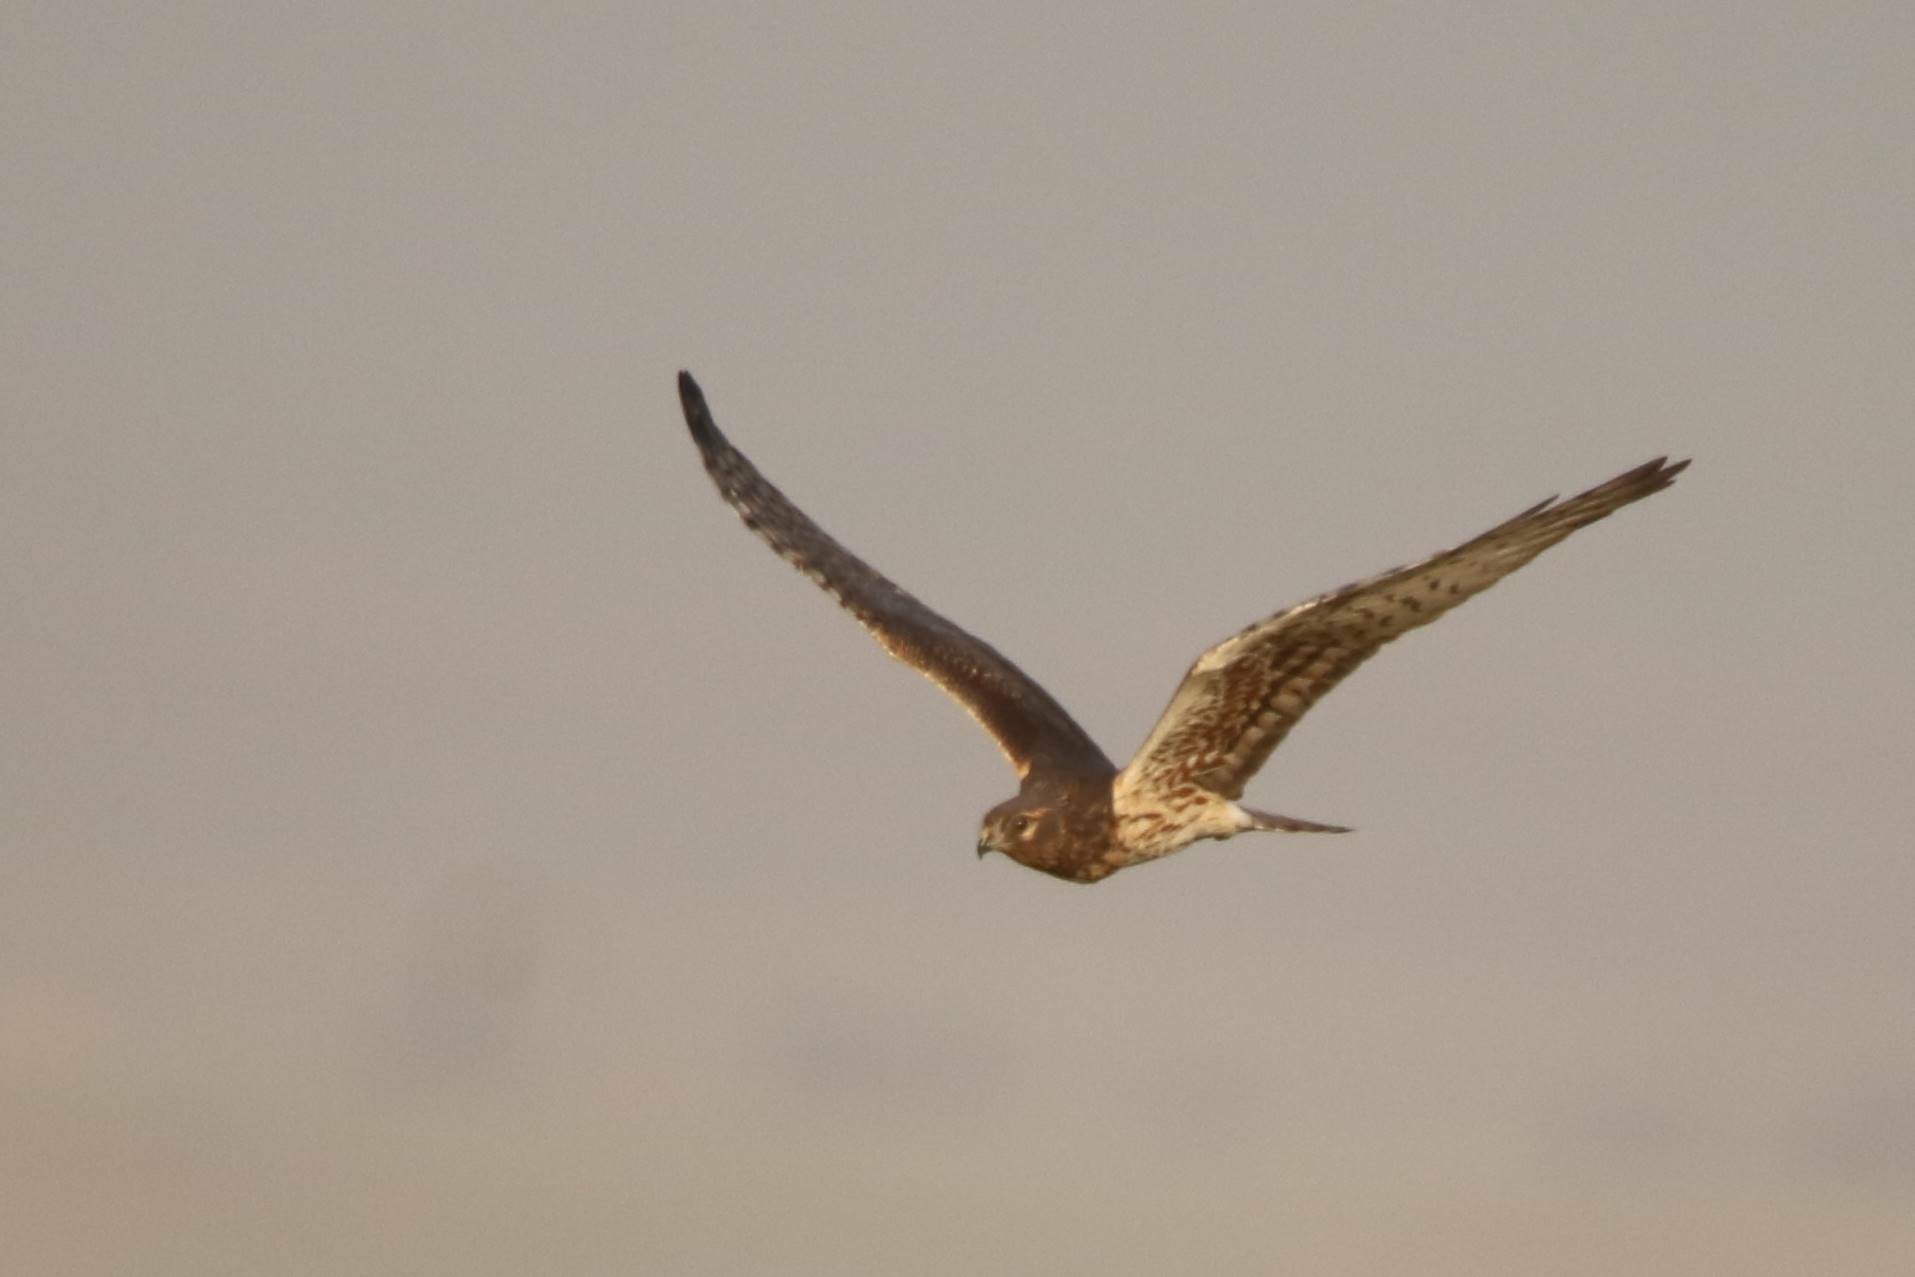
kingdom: Animalia
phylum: Chordata
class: Aves
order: Accipitriformes
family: Accipitridae
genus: Circus
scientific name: Circus pygargus
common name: Montagu's harrier
